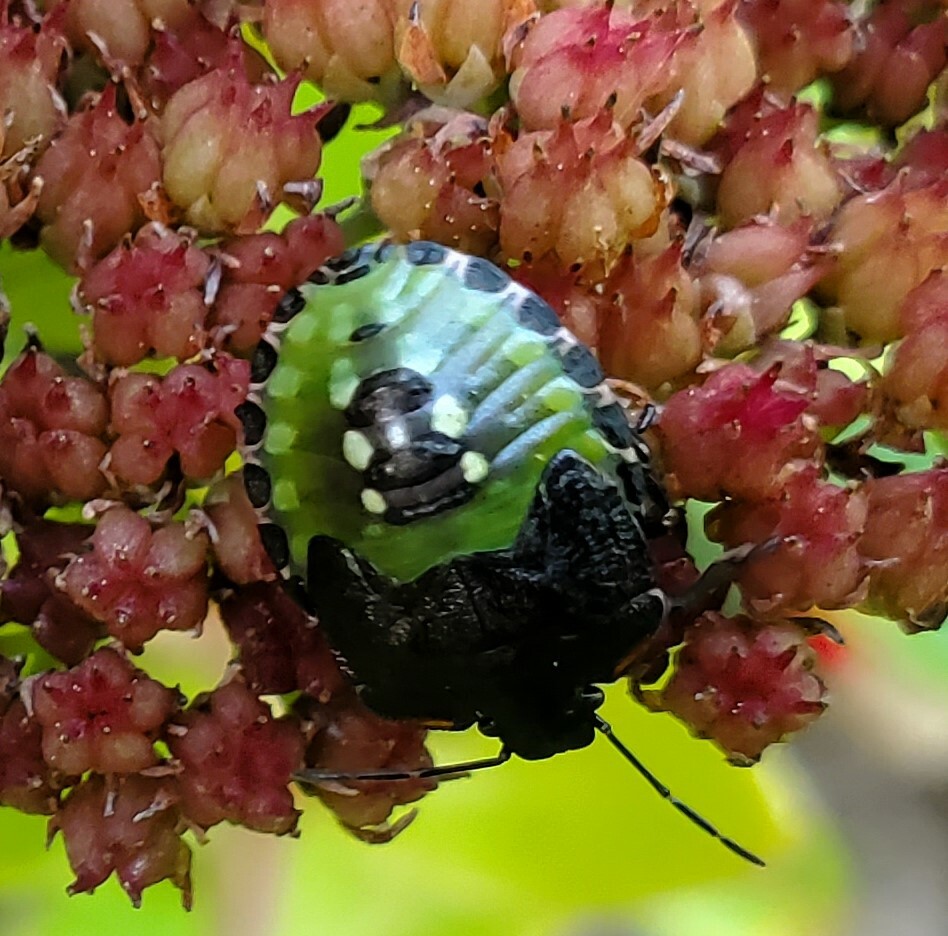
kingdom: Animalia
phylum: Arthropoda
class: Insecta
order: Hemiptera
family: Pentatomidae
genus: Nezara
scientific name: Nezara viridula
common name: Southern green stink bug
